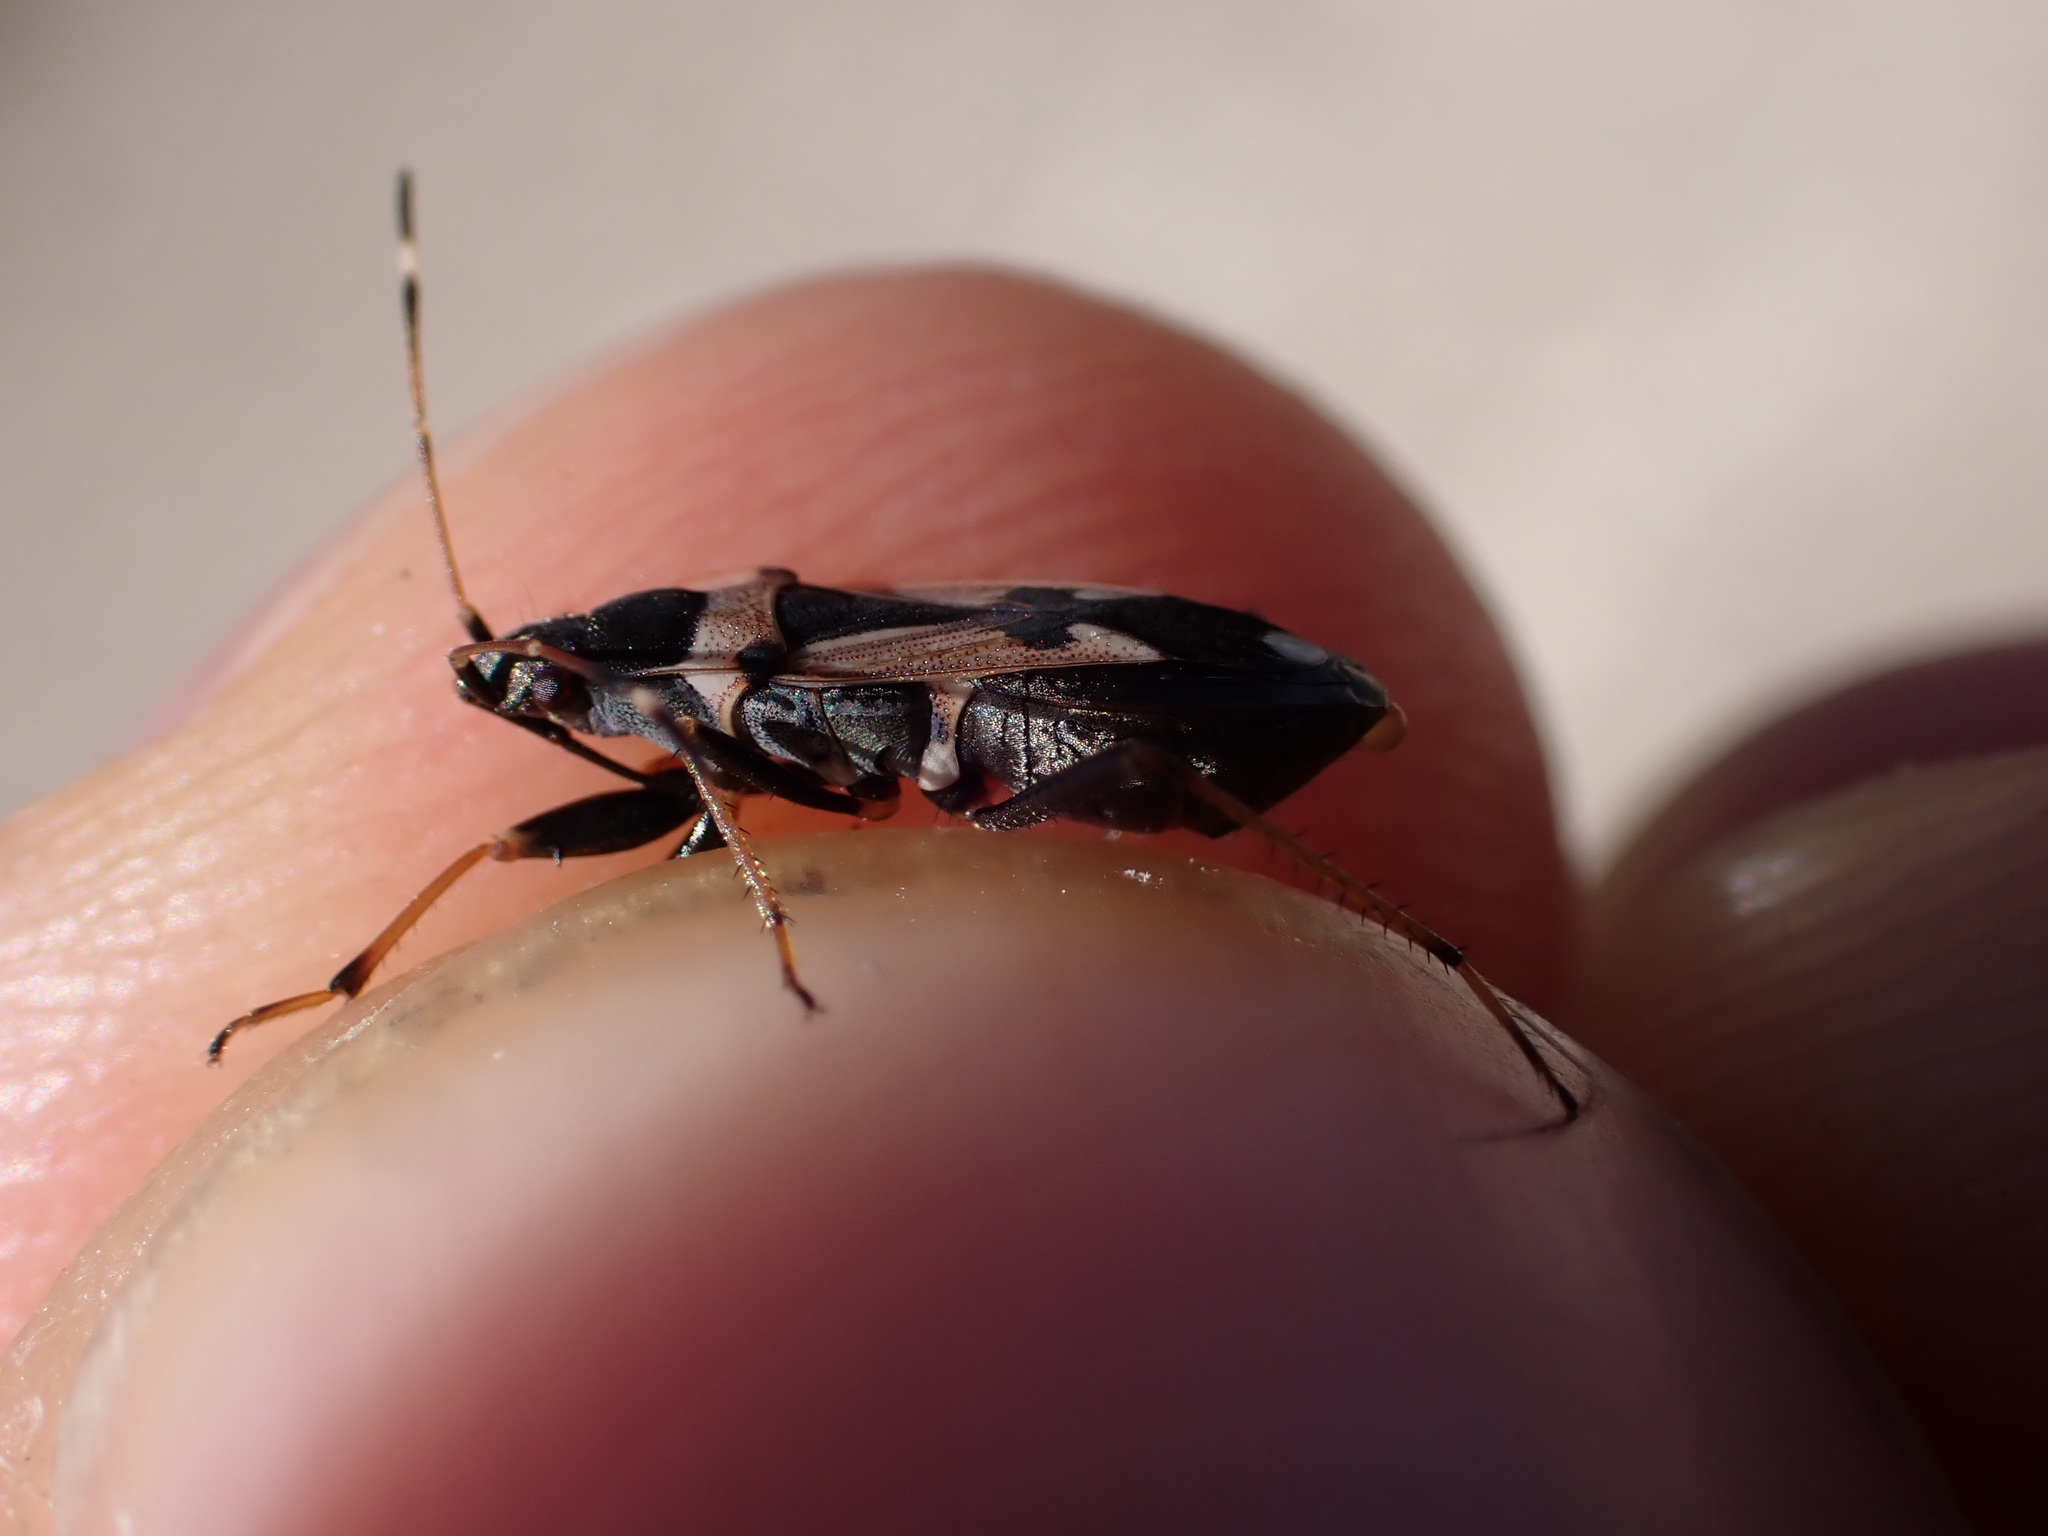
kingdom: Animalia
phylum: Arthropoda
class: Insecta
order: Hemiptera
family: Rhyparochromidae
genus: Raglius
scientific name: Raglius confusus
